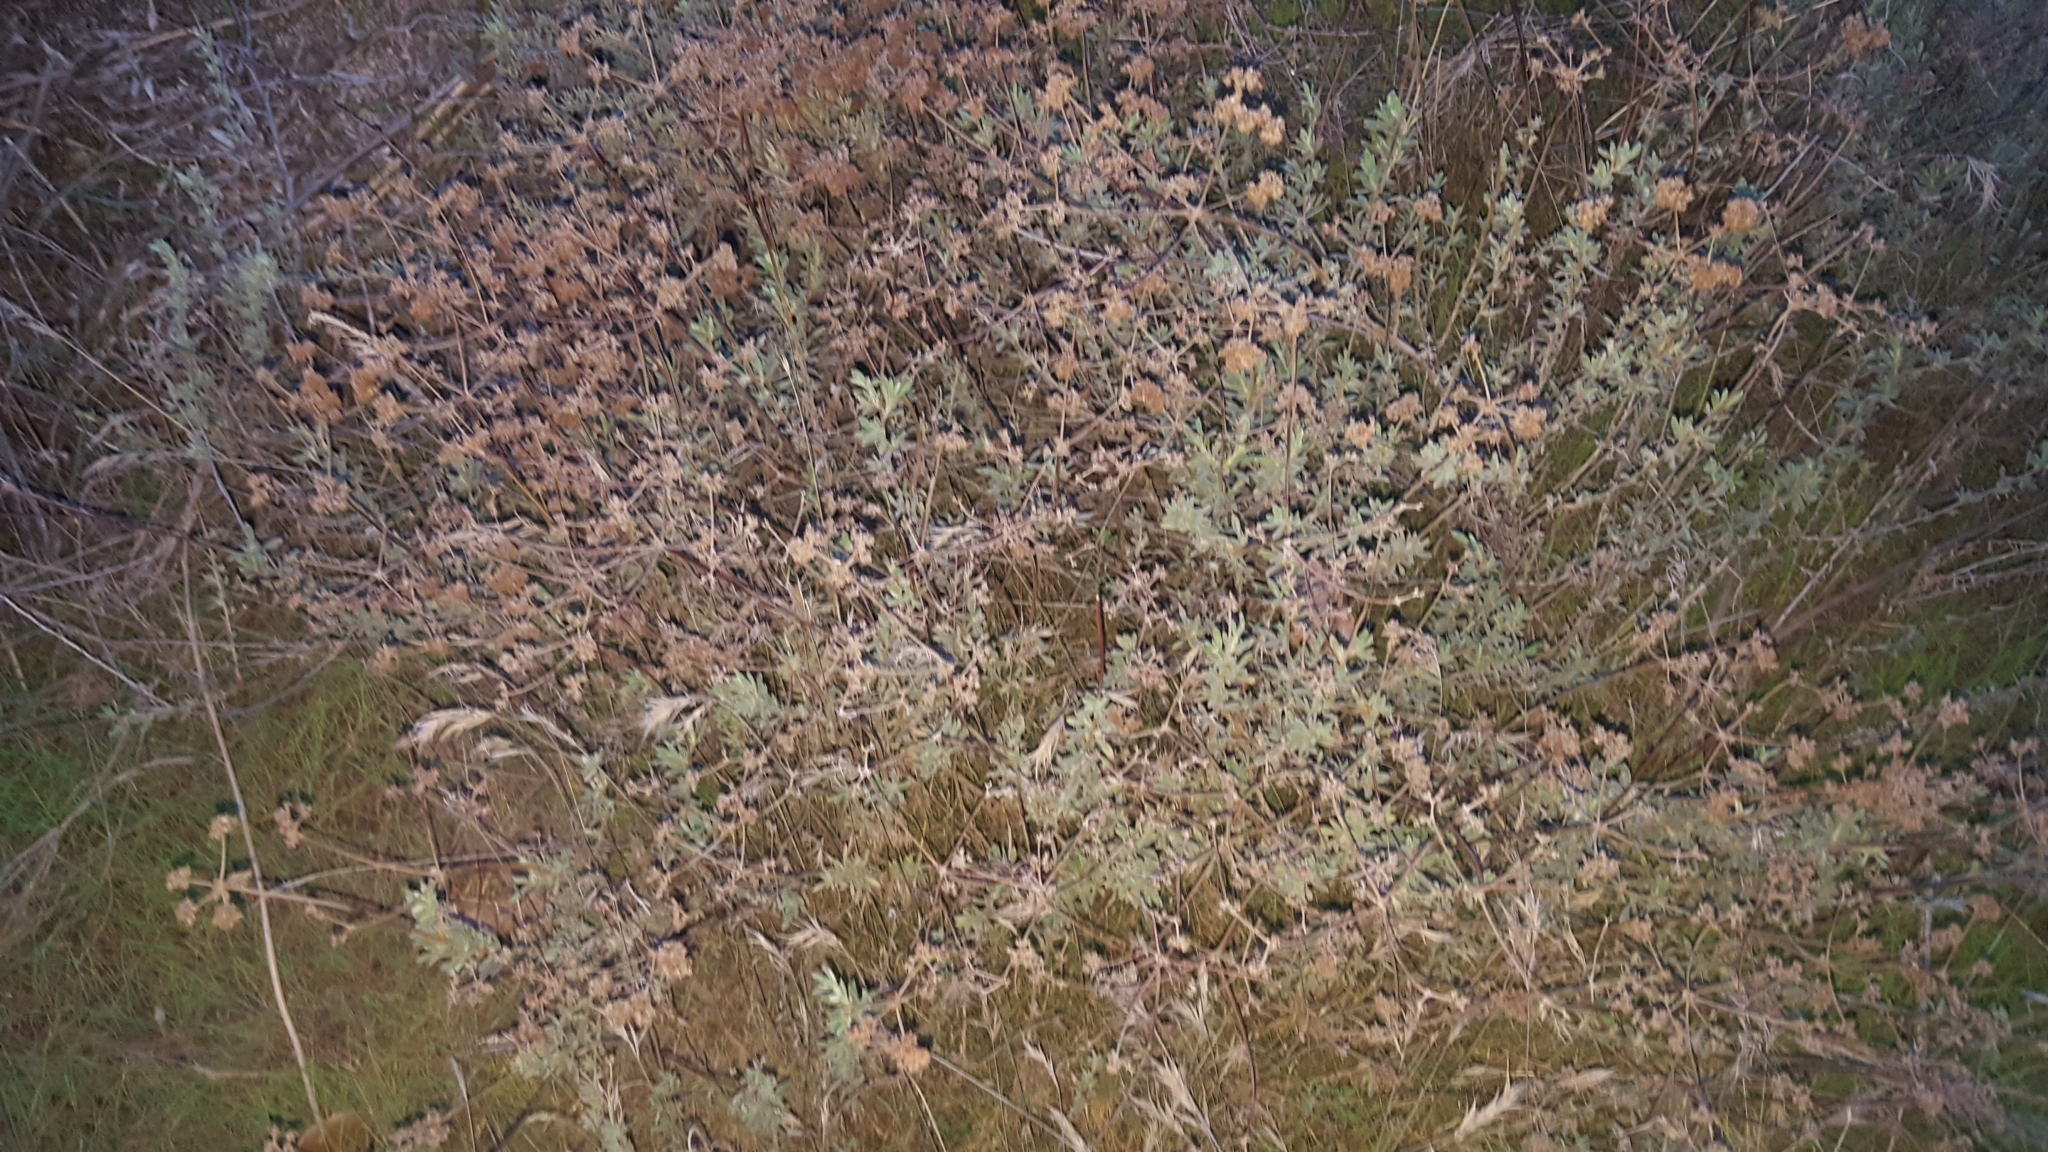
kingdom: Plantae
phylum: Tracheophyta
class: Magnoliopsida
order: Caryophyllales
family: Polygonaceae
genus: Eriogonum
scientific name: Eriogonum fasciculatum
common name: California wild buckwheat
